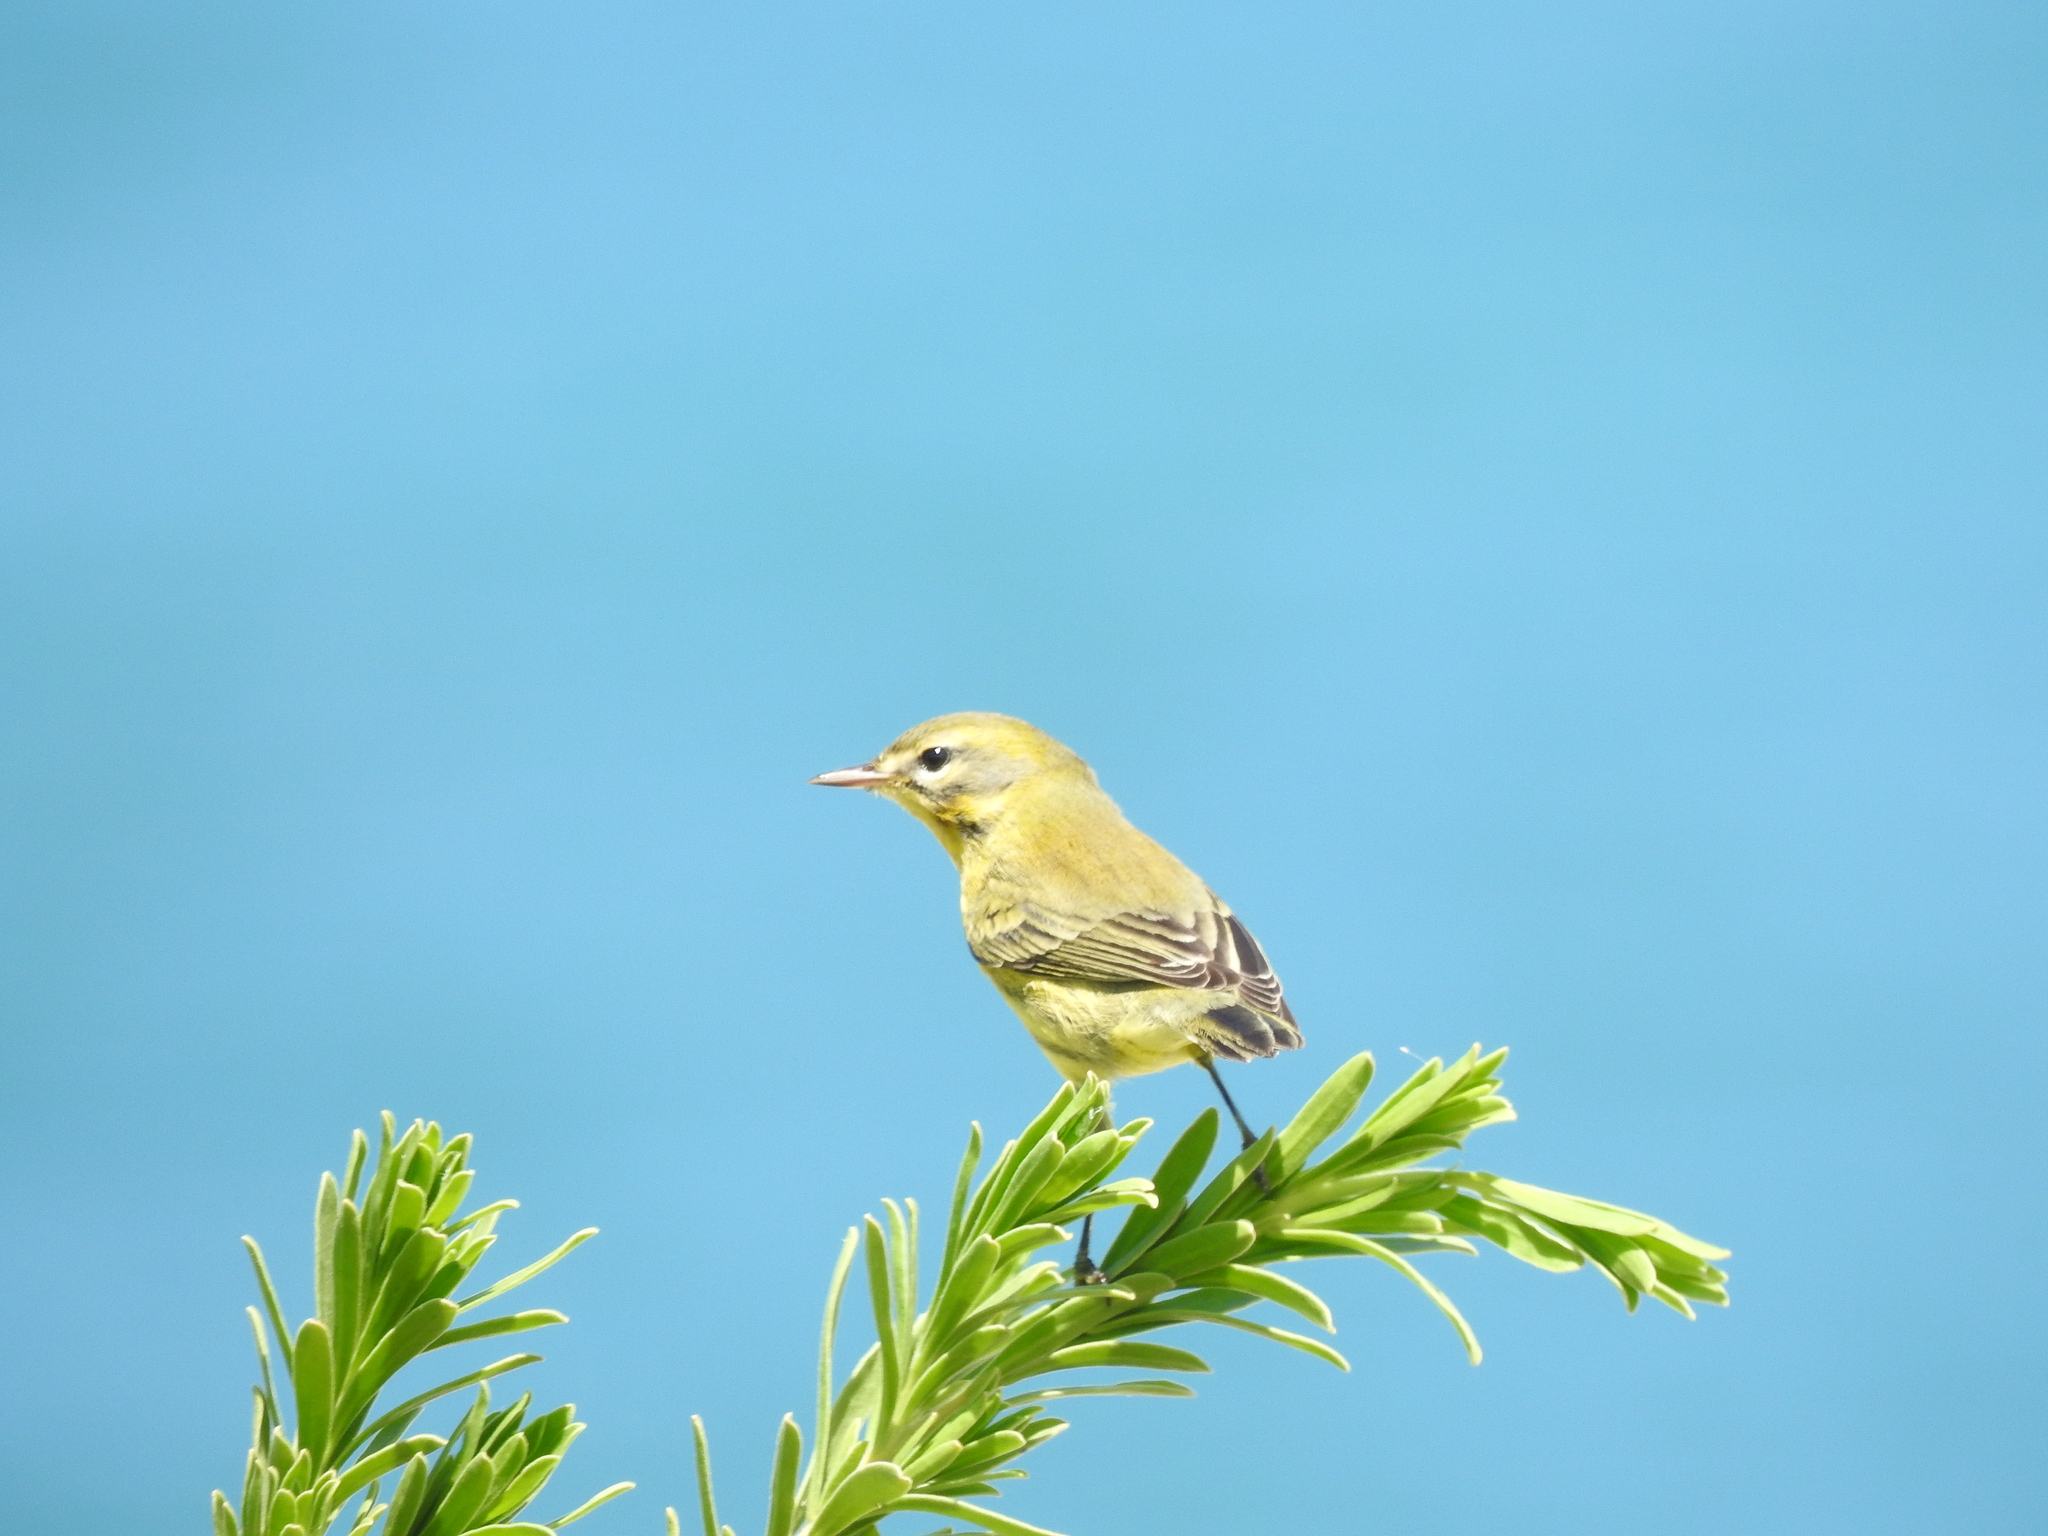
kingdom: Animalia
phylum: Chordata
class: Aves
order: Passeriformes
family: Parulidae
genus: Setophaga
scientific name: Setophaga discolor
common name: Prairie warbler
